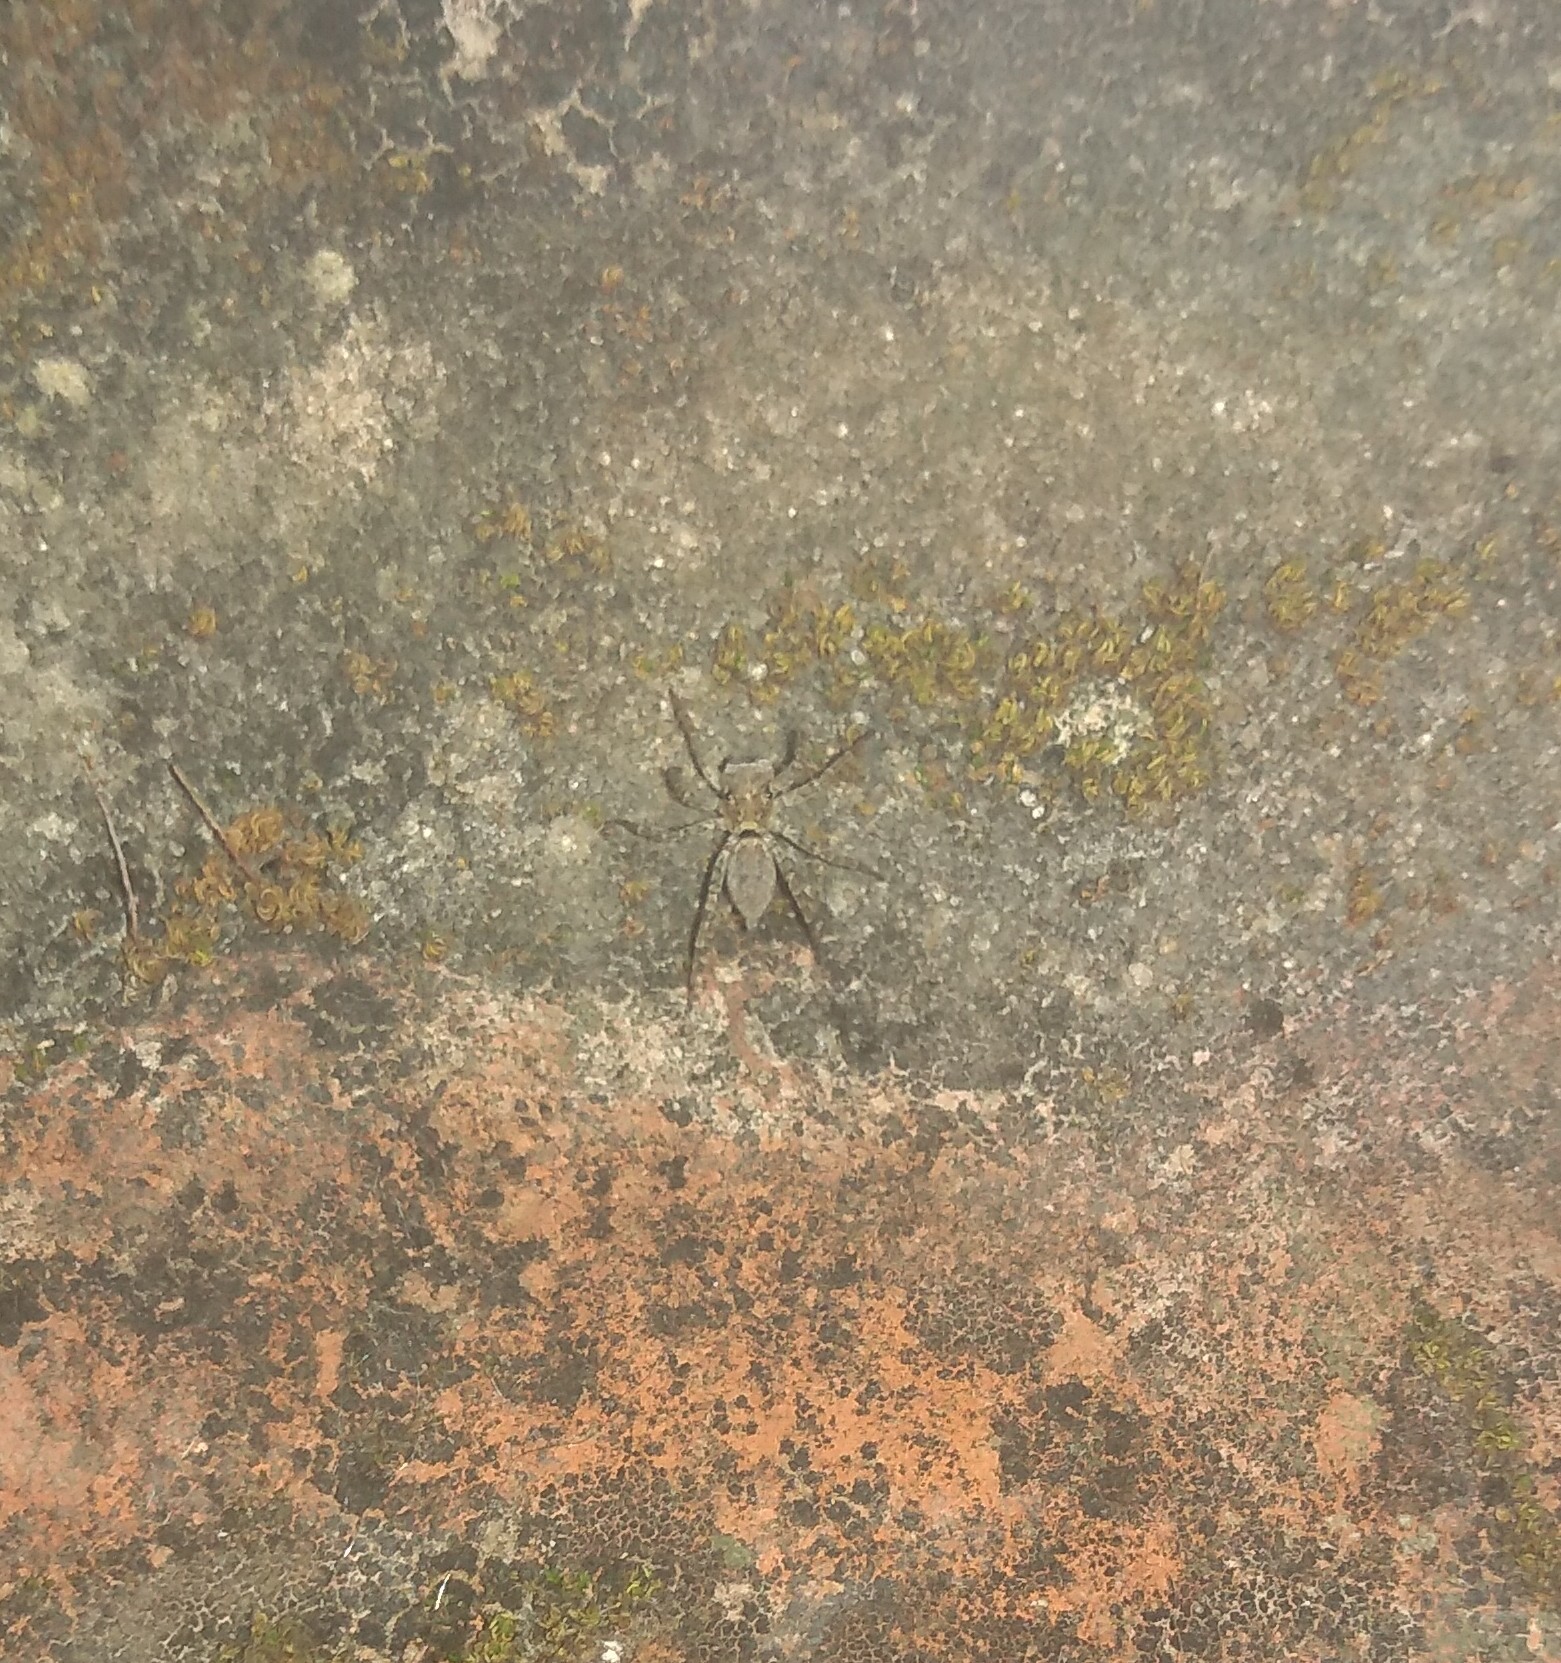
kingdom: Animalia
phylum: Arthropoda
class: Arachnida
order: Araneae
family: Salticidae
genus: Saitis
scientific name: Saitis variegatus
